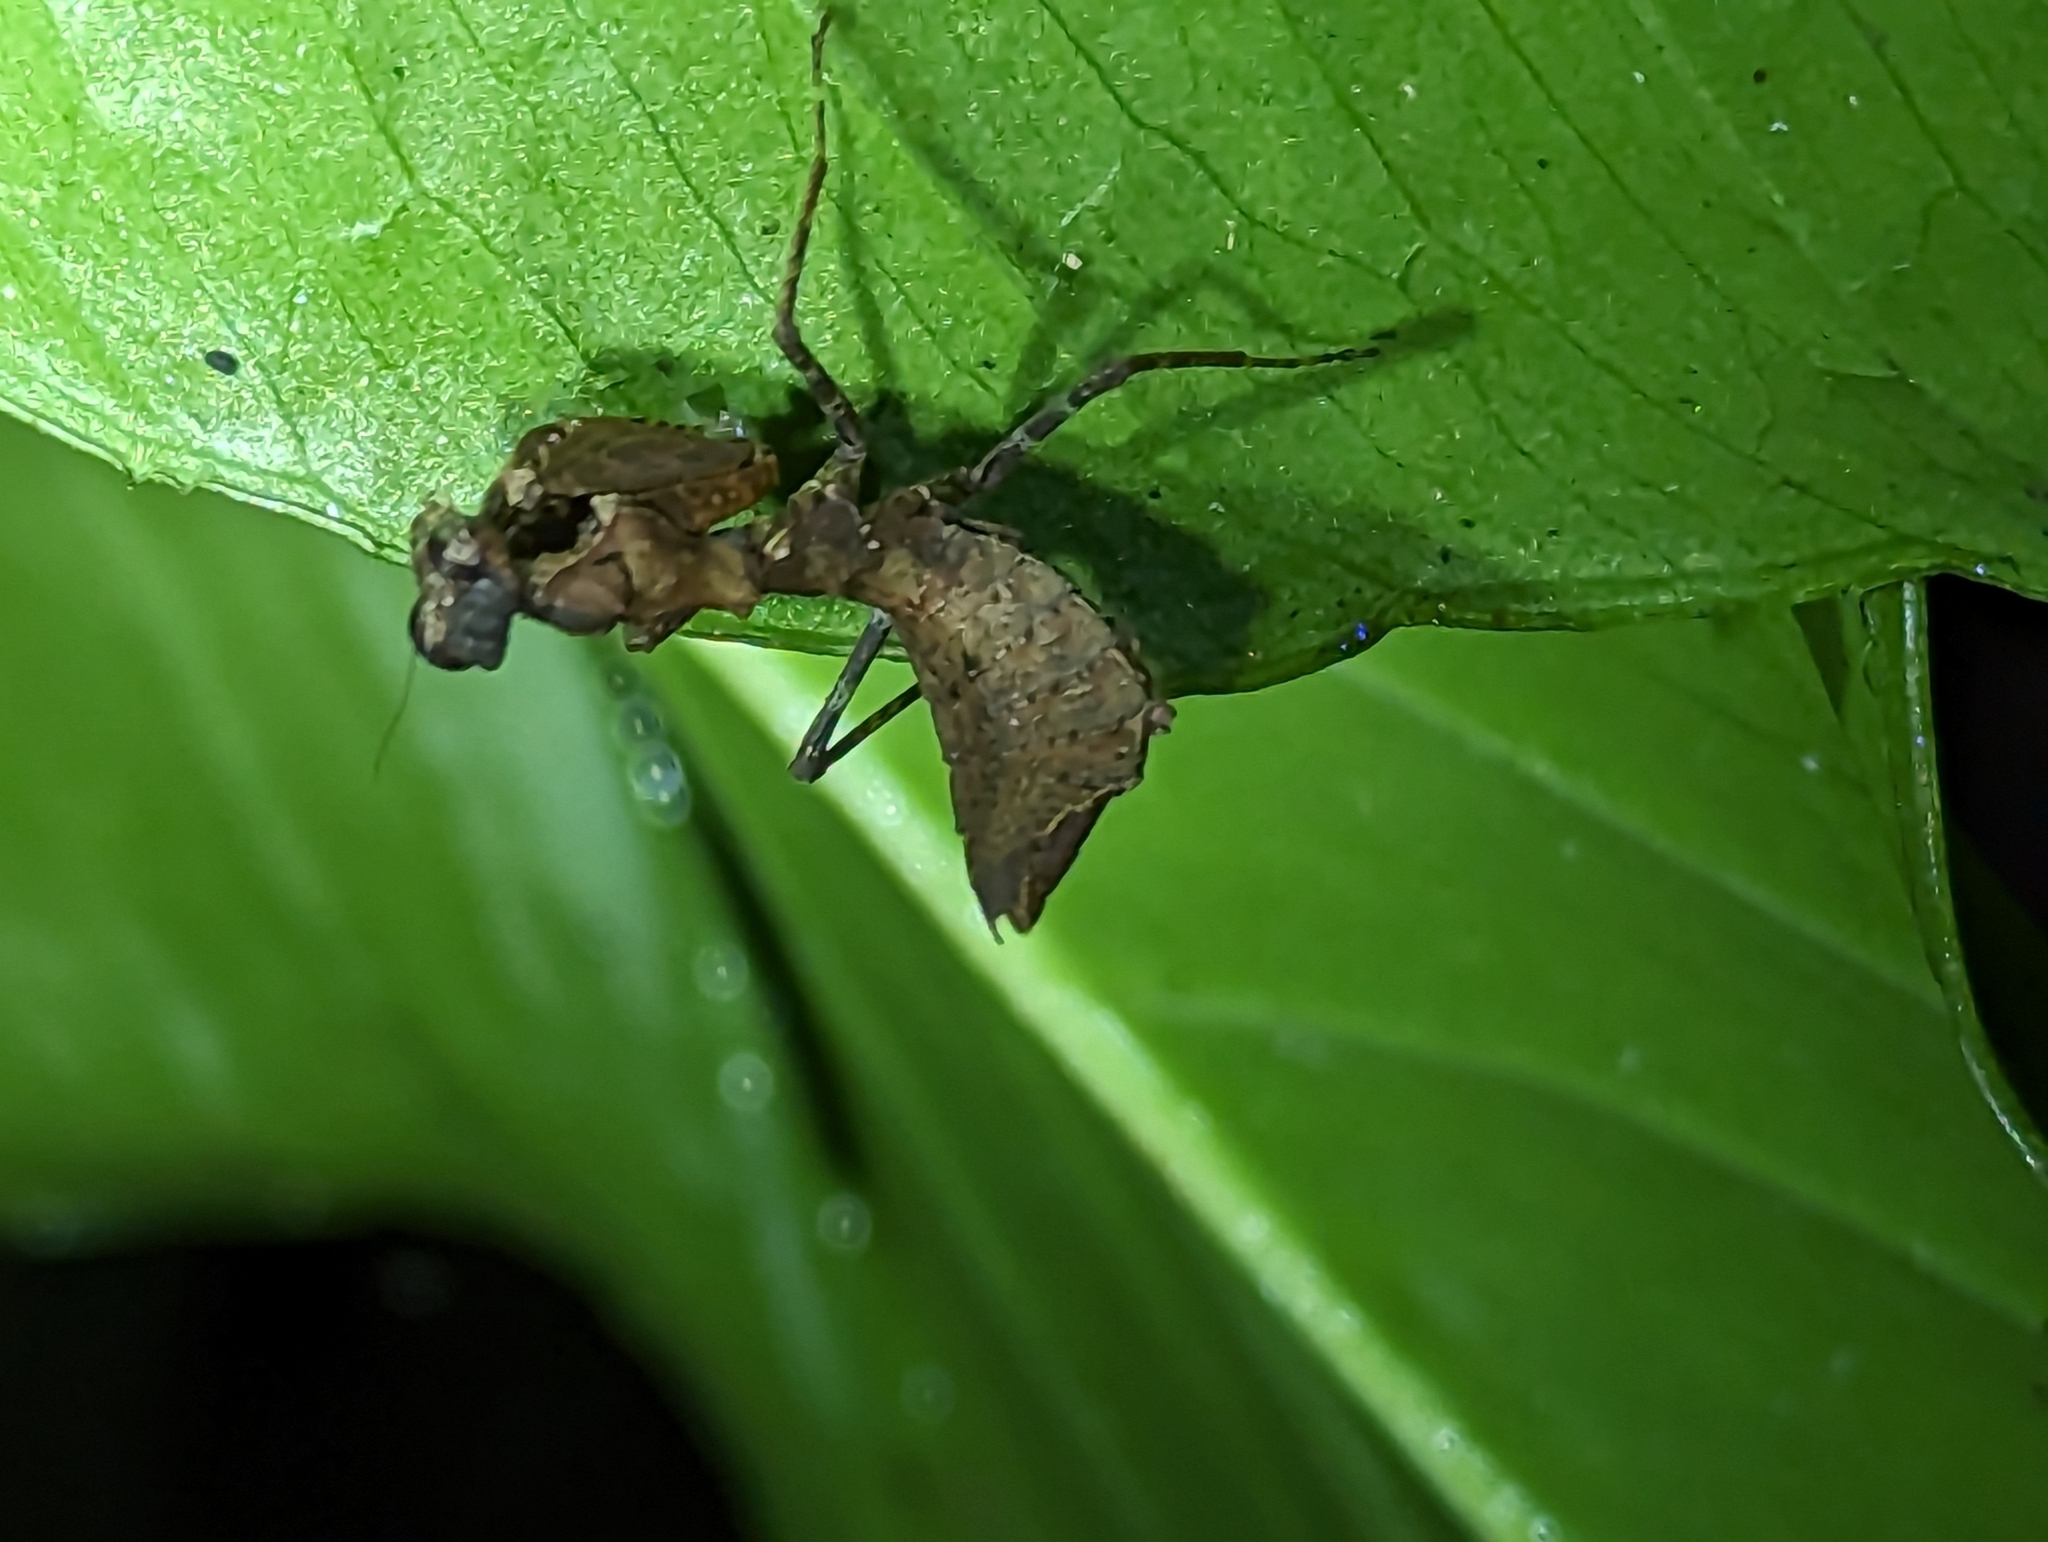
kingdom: Animalia
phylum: Arthropoda
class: Insecta
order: Mantodea
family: Thespidae
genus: Pseudomiopteryx
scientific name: Pseudomiopteryx infuscata
